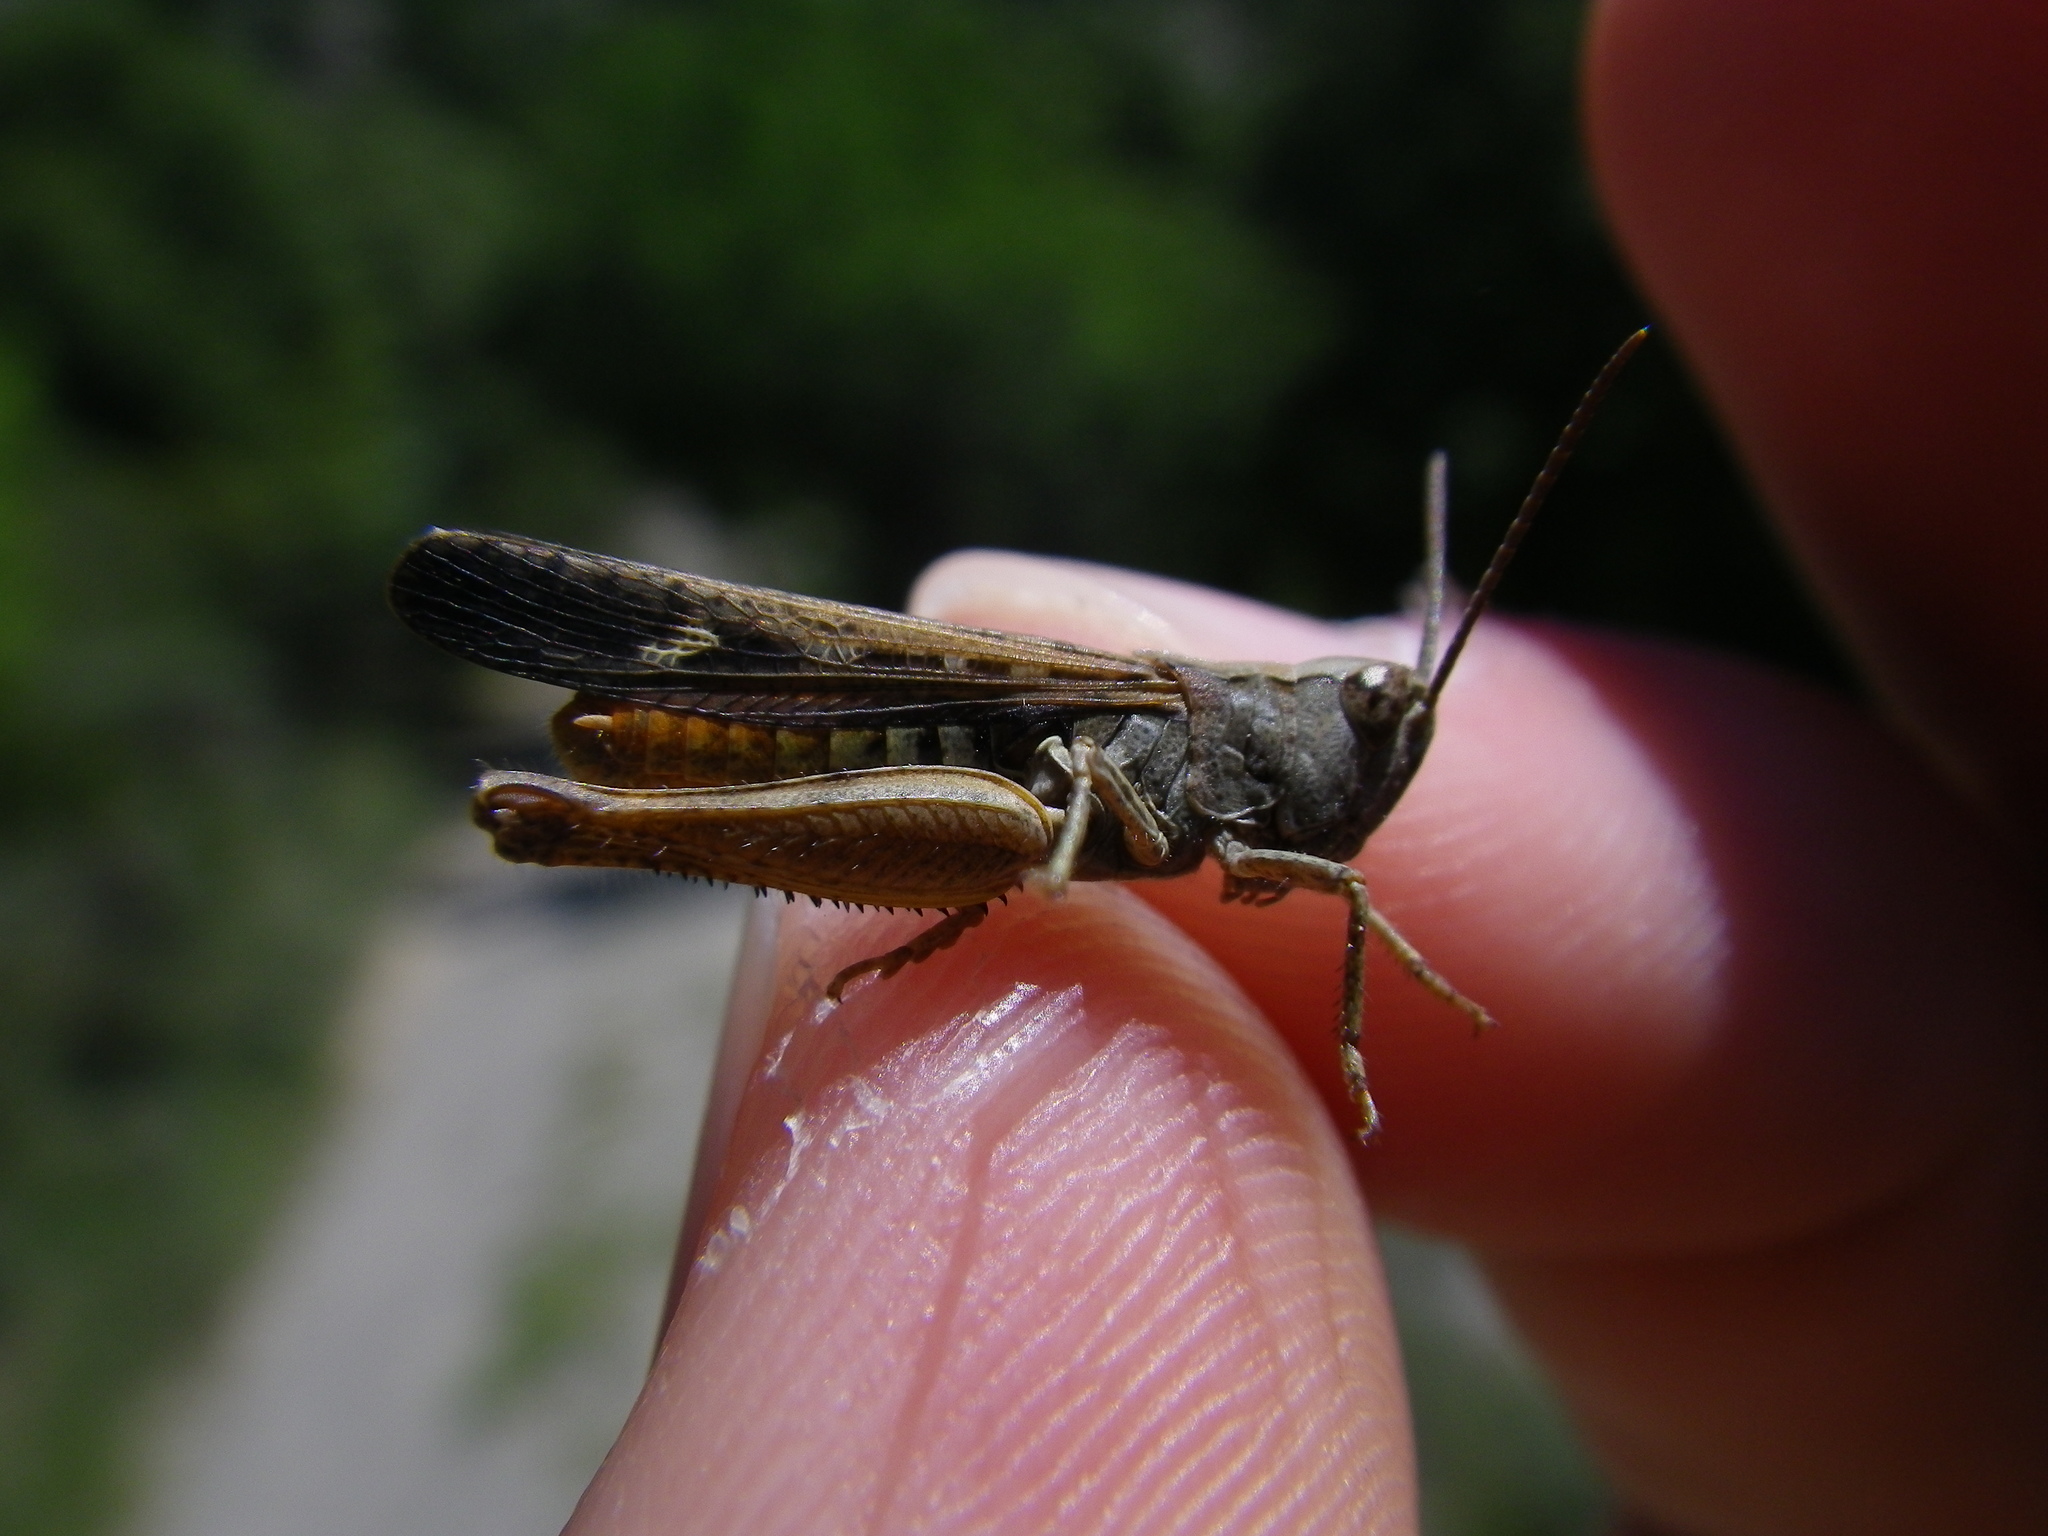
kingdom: Animalia
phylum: Arthropoda
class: Insecta
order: Orthoptera
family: Acrididae
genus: Chorthippus
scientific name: Chorthippus vagans
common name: Heath grasshopper
